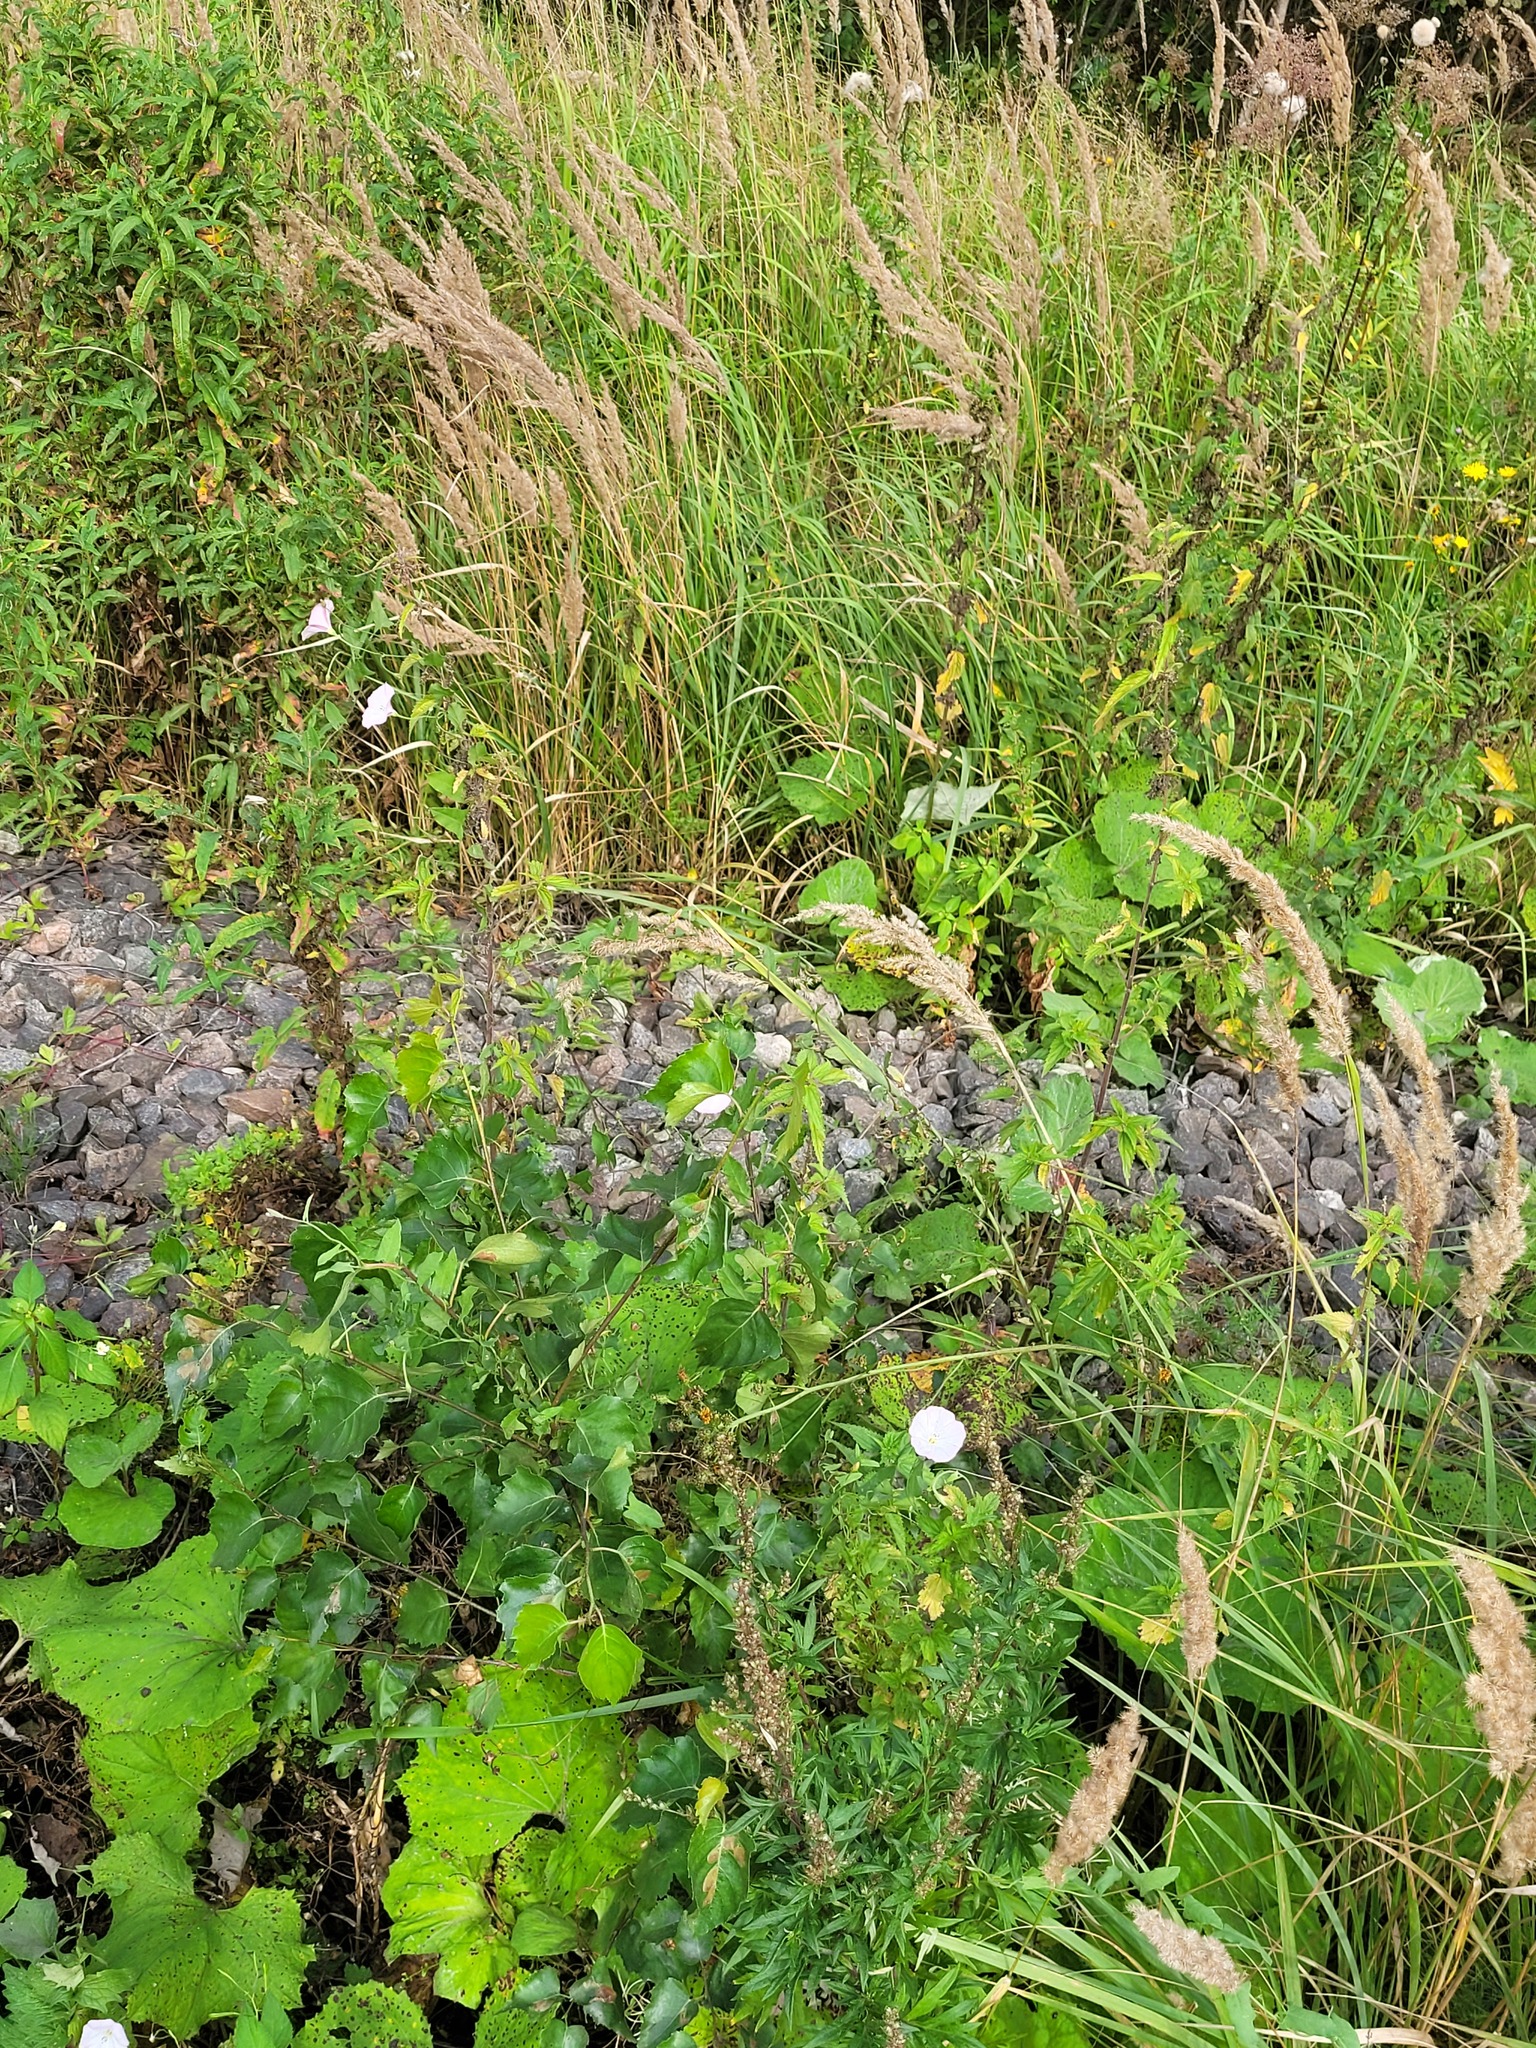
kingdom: Plantae
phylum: Tracheophyta
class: Magnoliopsida
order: Fagales
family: Betulaceae
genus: Betula
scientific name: Betula pendula
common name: Silver birch
